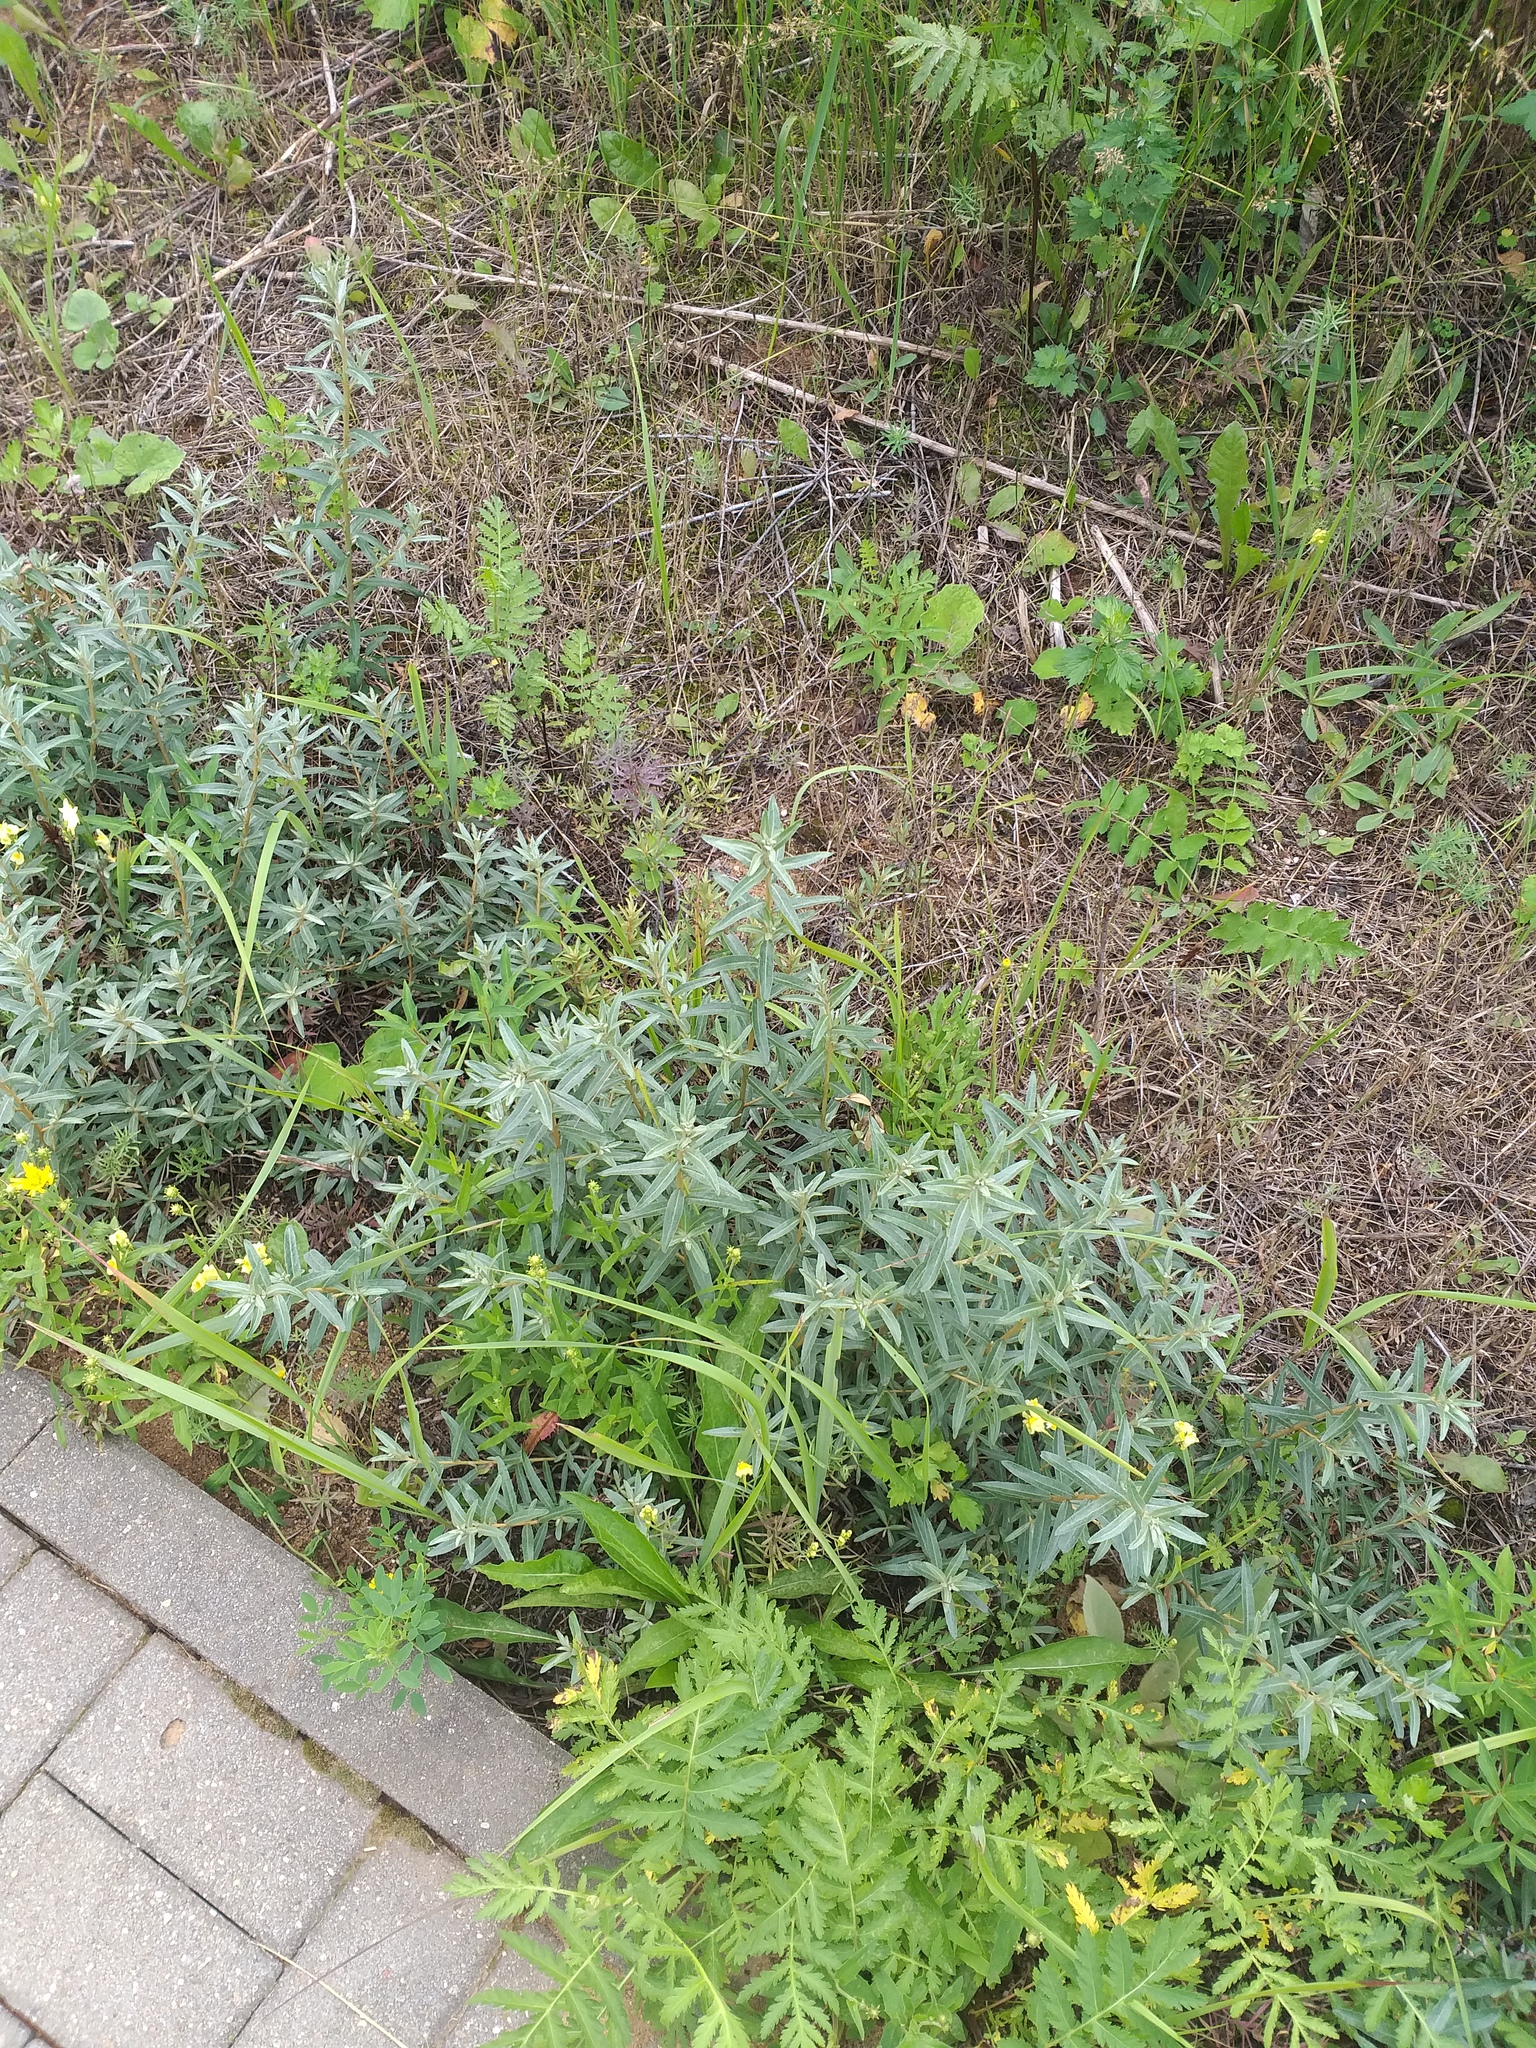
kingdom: Plantae
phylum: Tracheophyta
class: Magnoliopsida
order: Rosales
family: Elaeagnaceae
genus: Hippophae
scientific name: Hippophae rhamnoides
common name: Sea-buckthorn
